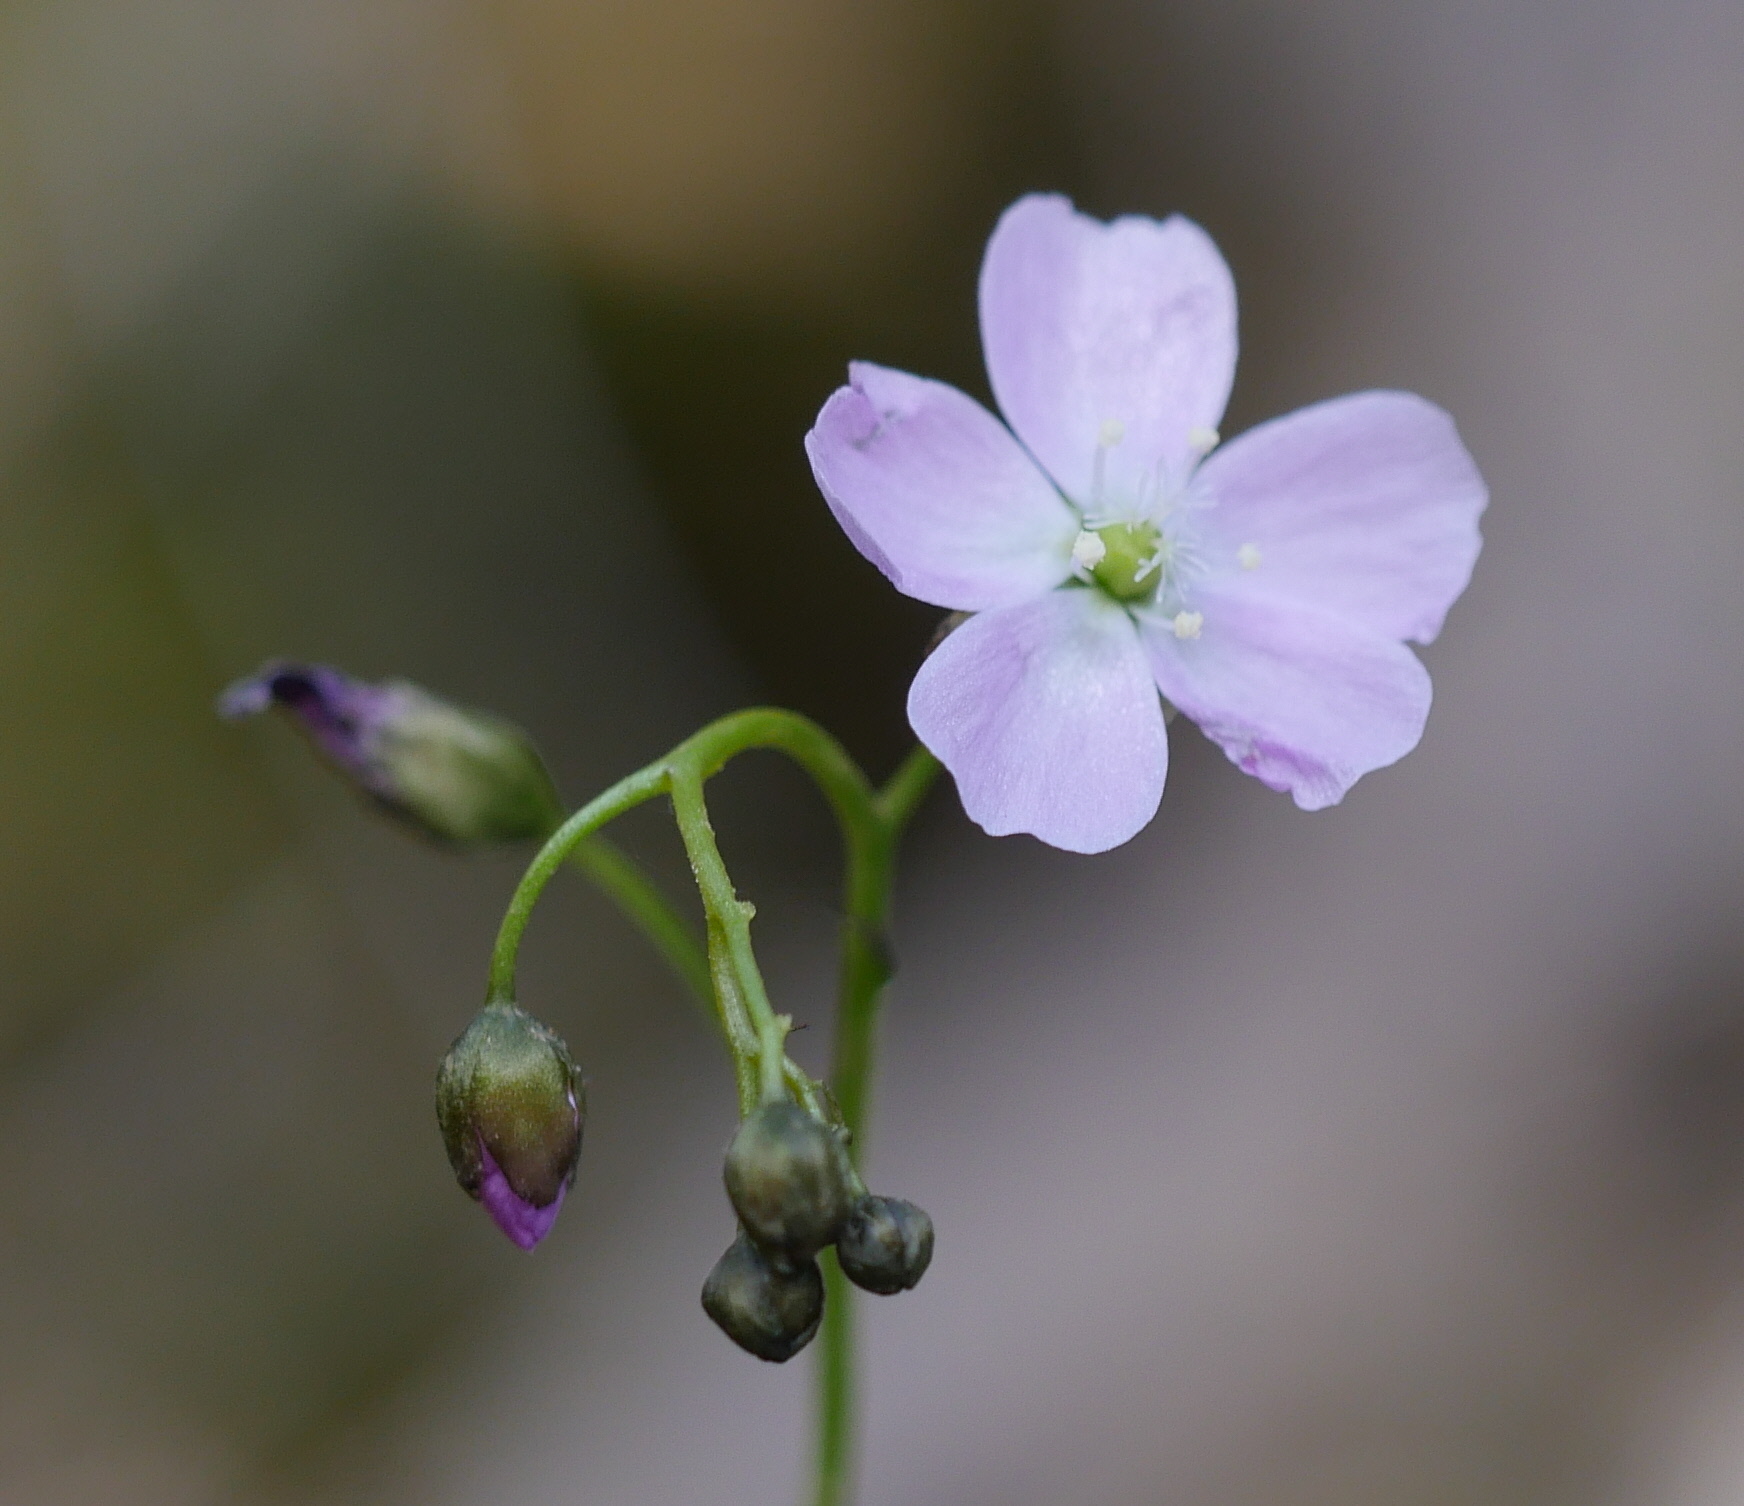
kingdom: Plantae
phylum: Tracheophyta
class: Magnoliopsida
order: Caryophyllales
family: Droseraceae
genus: Drosera
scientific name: Drosera peltata
